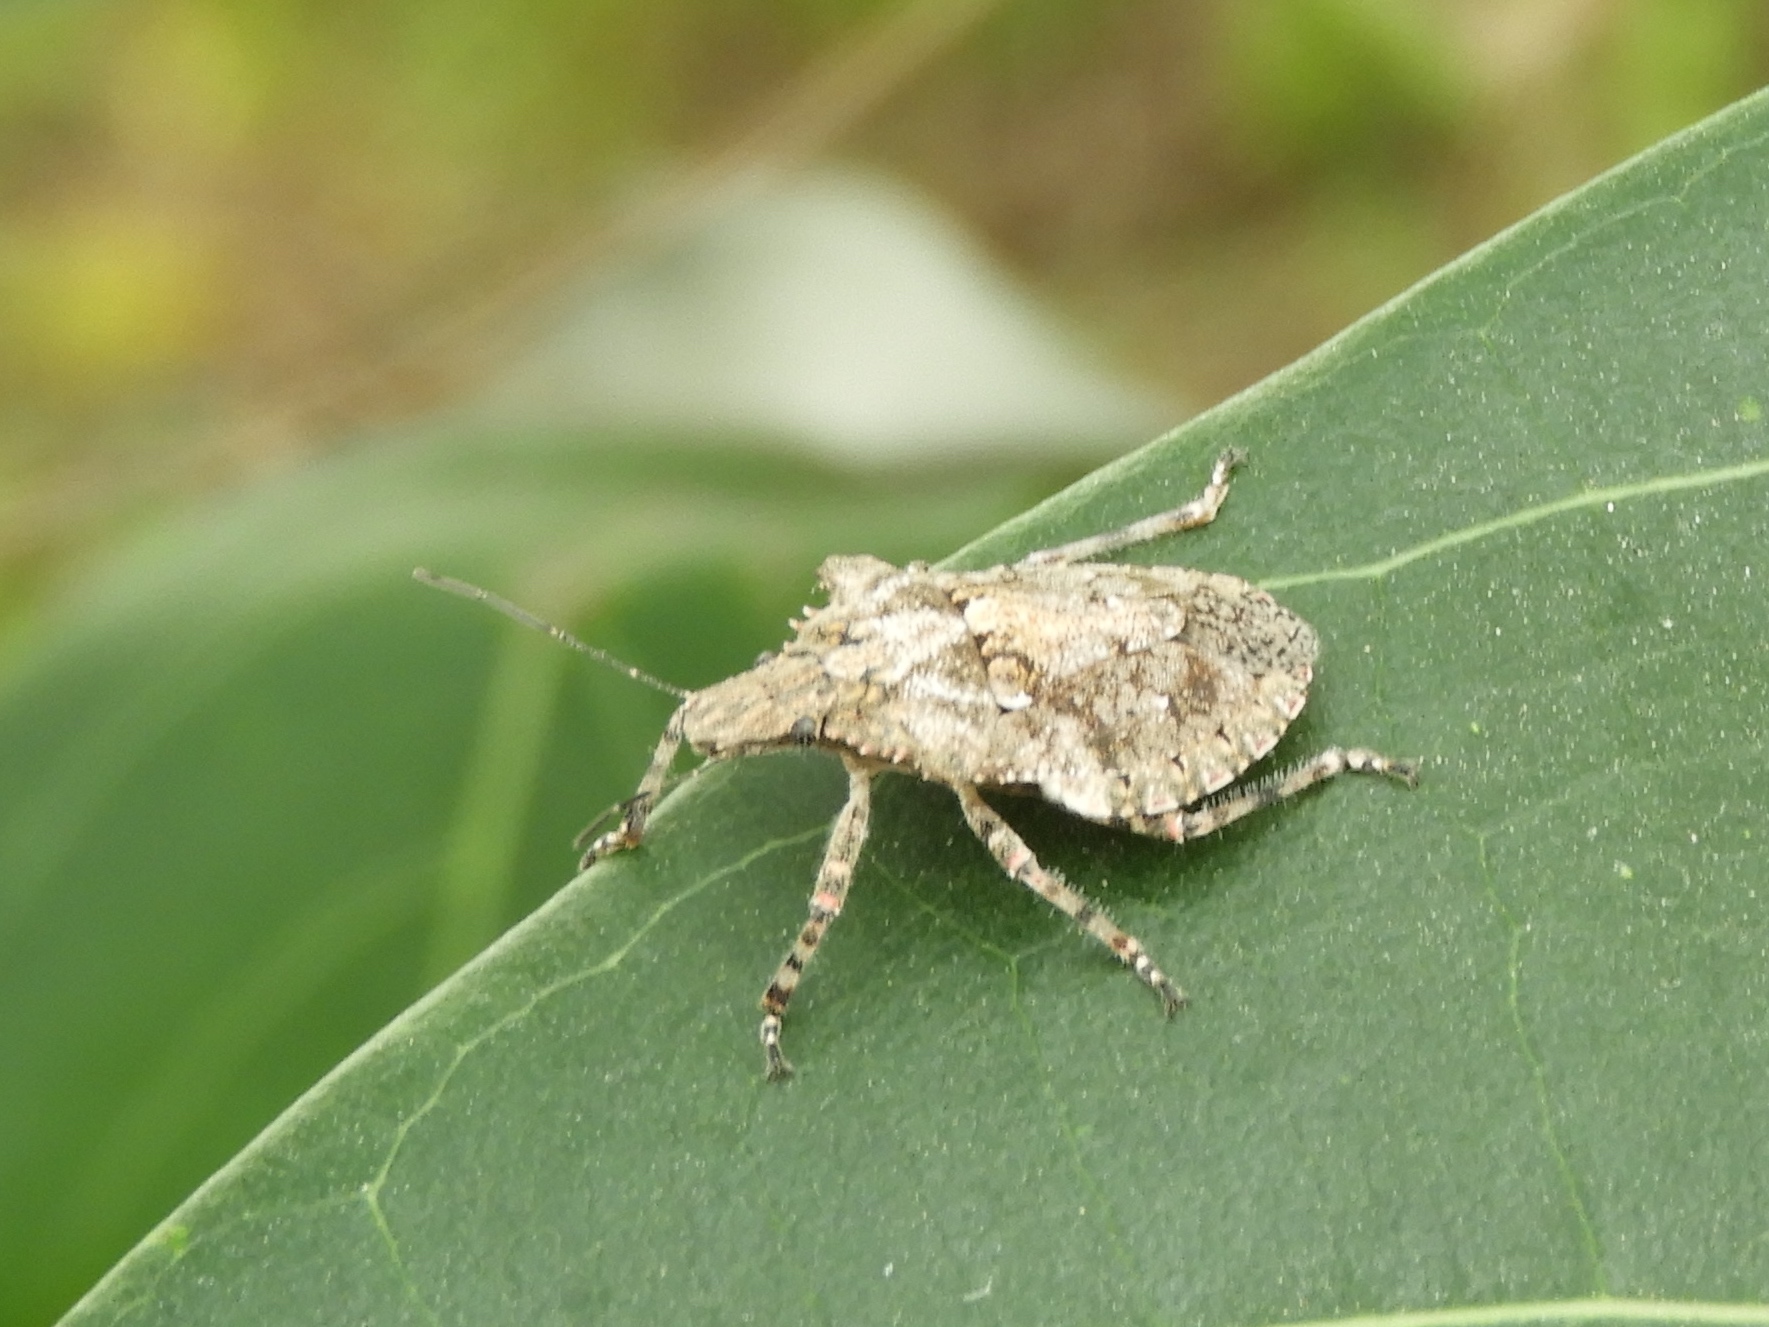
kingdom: Animalia
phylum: Arthropoda
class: Insecta
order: Hemiptera
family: Pentatomidae
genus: Brochymena
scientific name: Brochymena
